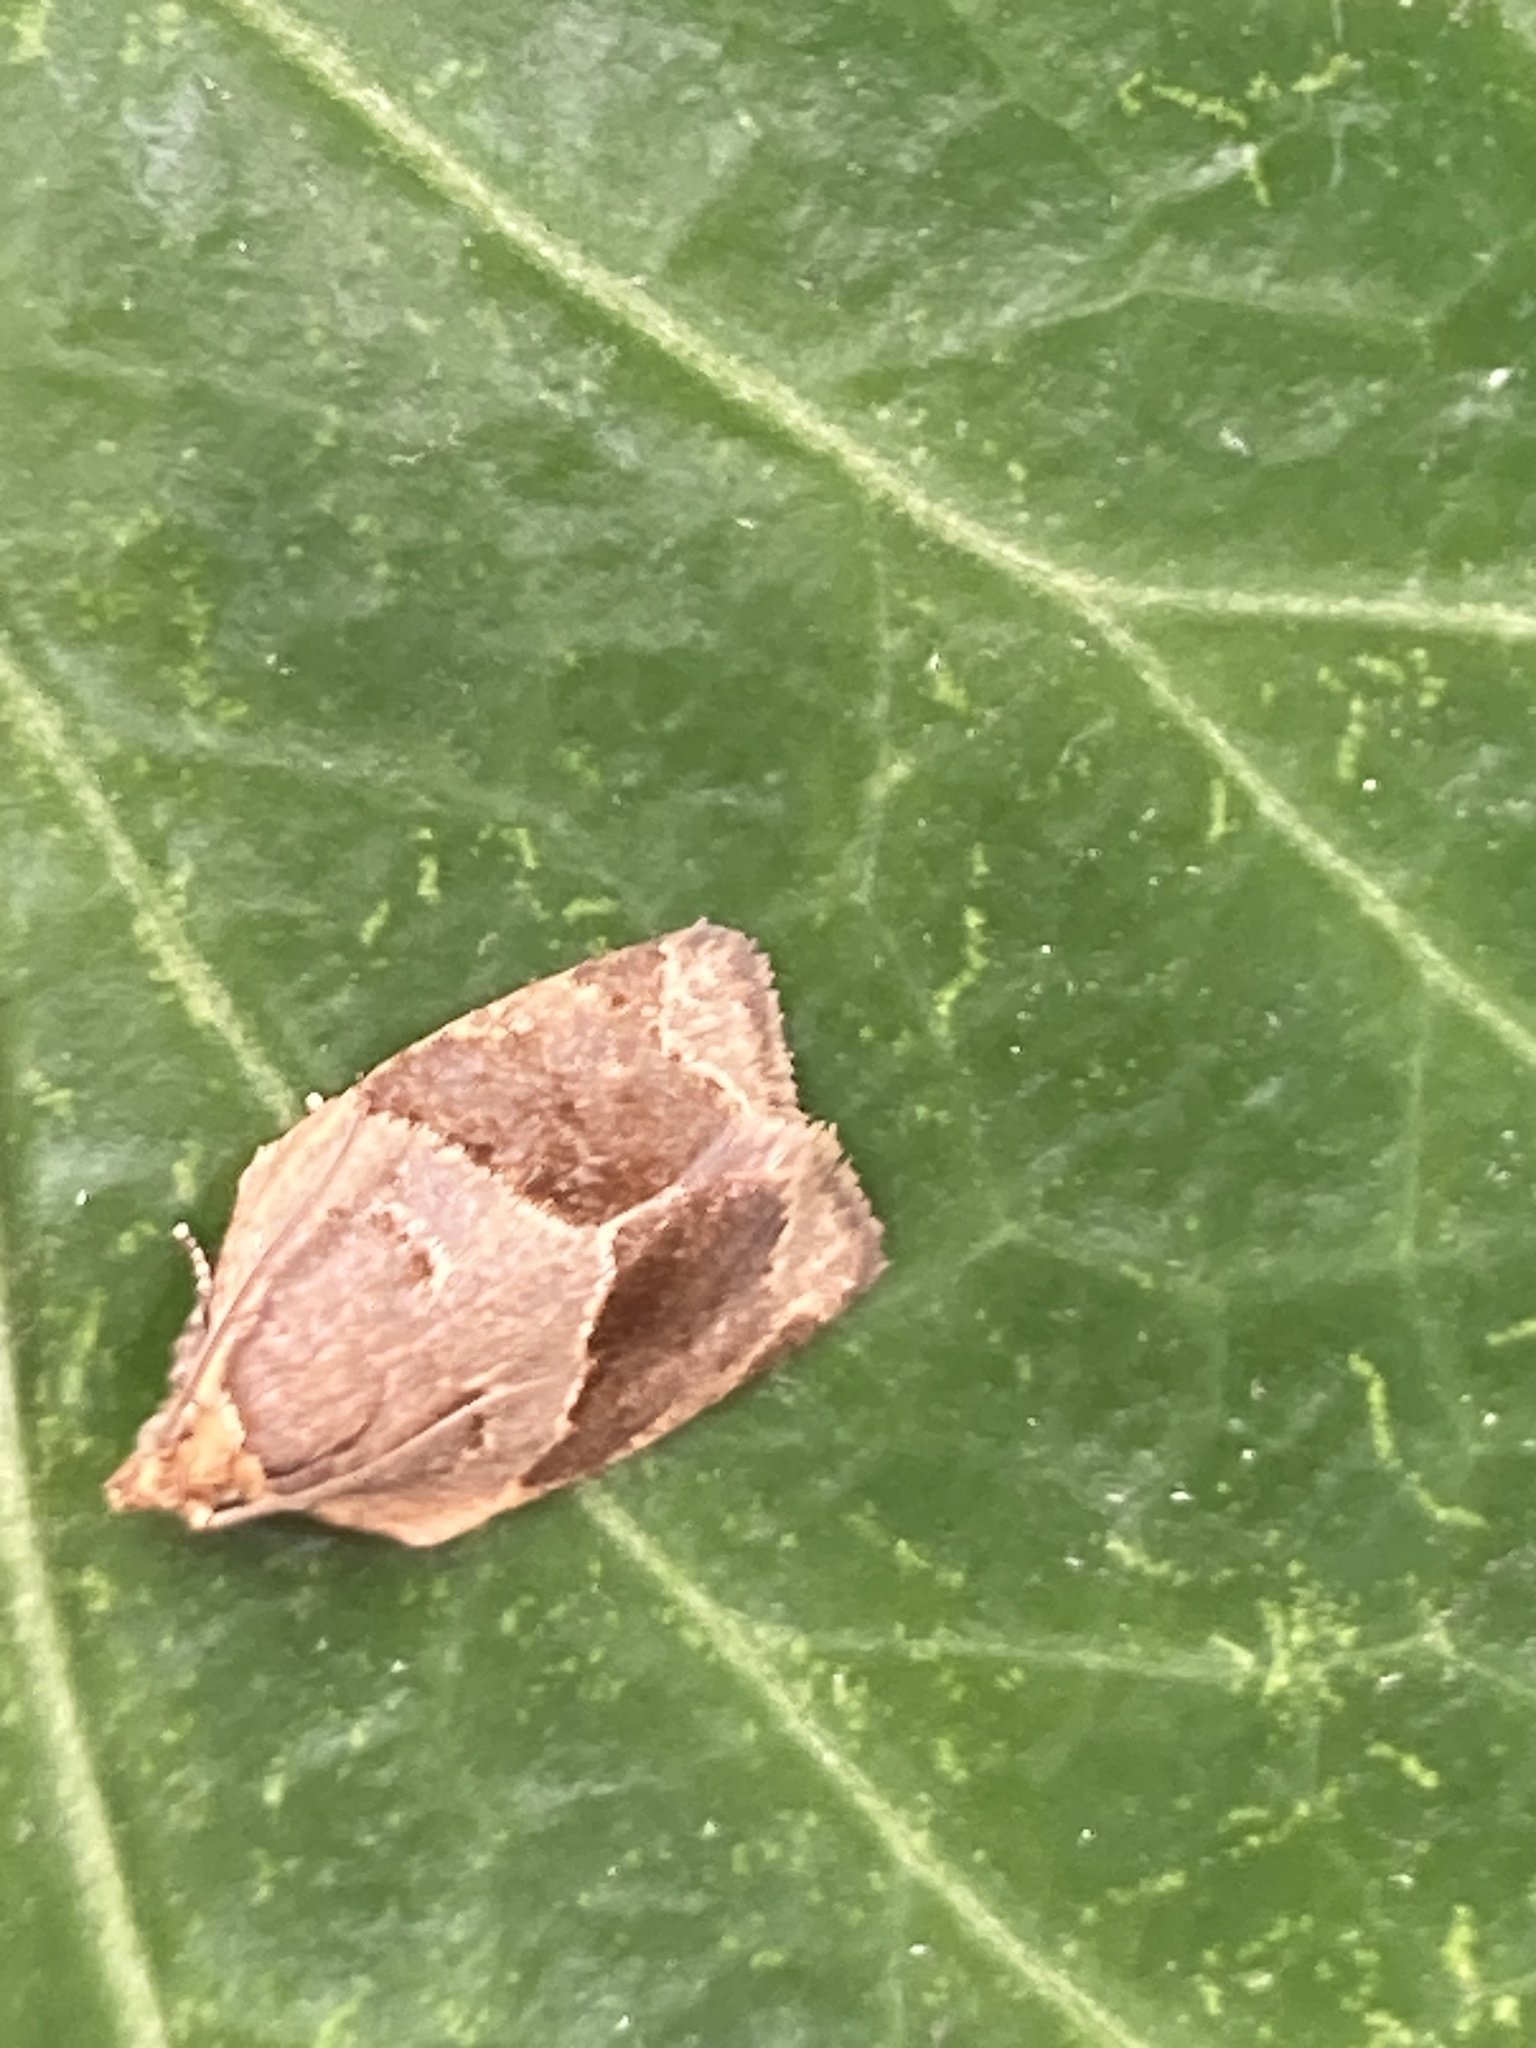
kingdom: Animalia
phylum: Arthropoda
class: Insecta
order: Lepidoptera
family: Tortricidae
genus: Clepsis
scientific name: Clepsis dumicolana
